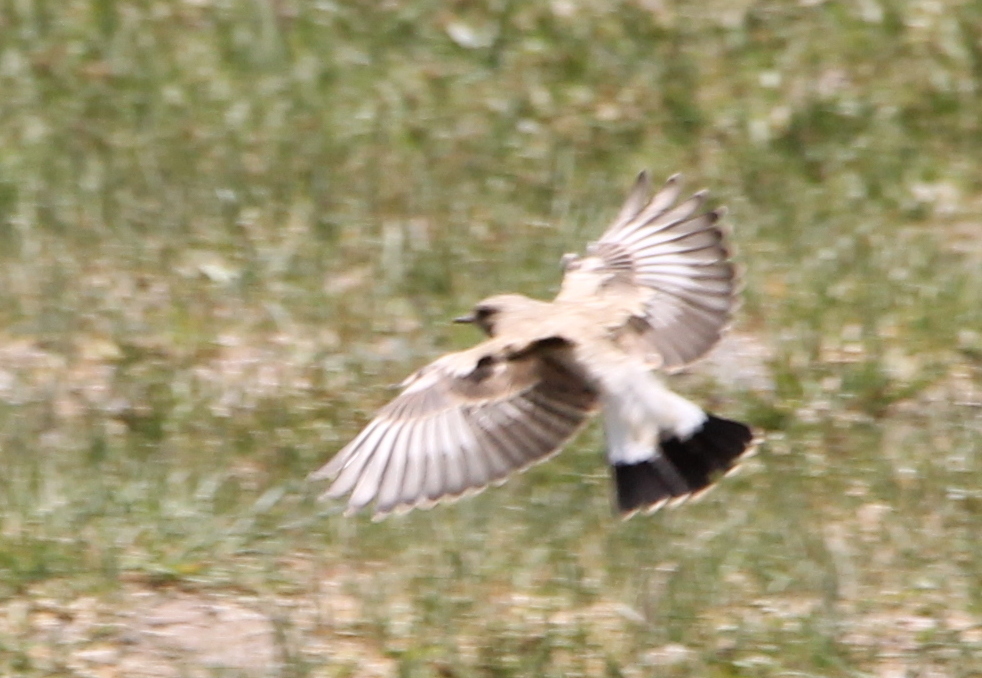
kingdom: Animalia
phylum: Chordata
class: Aves
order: Passeriformes
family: Muscicapidae
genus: Oenanthe
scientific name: Oenanthe isabellina
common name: Isabelline wheatear
